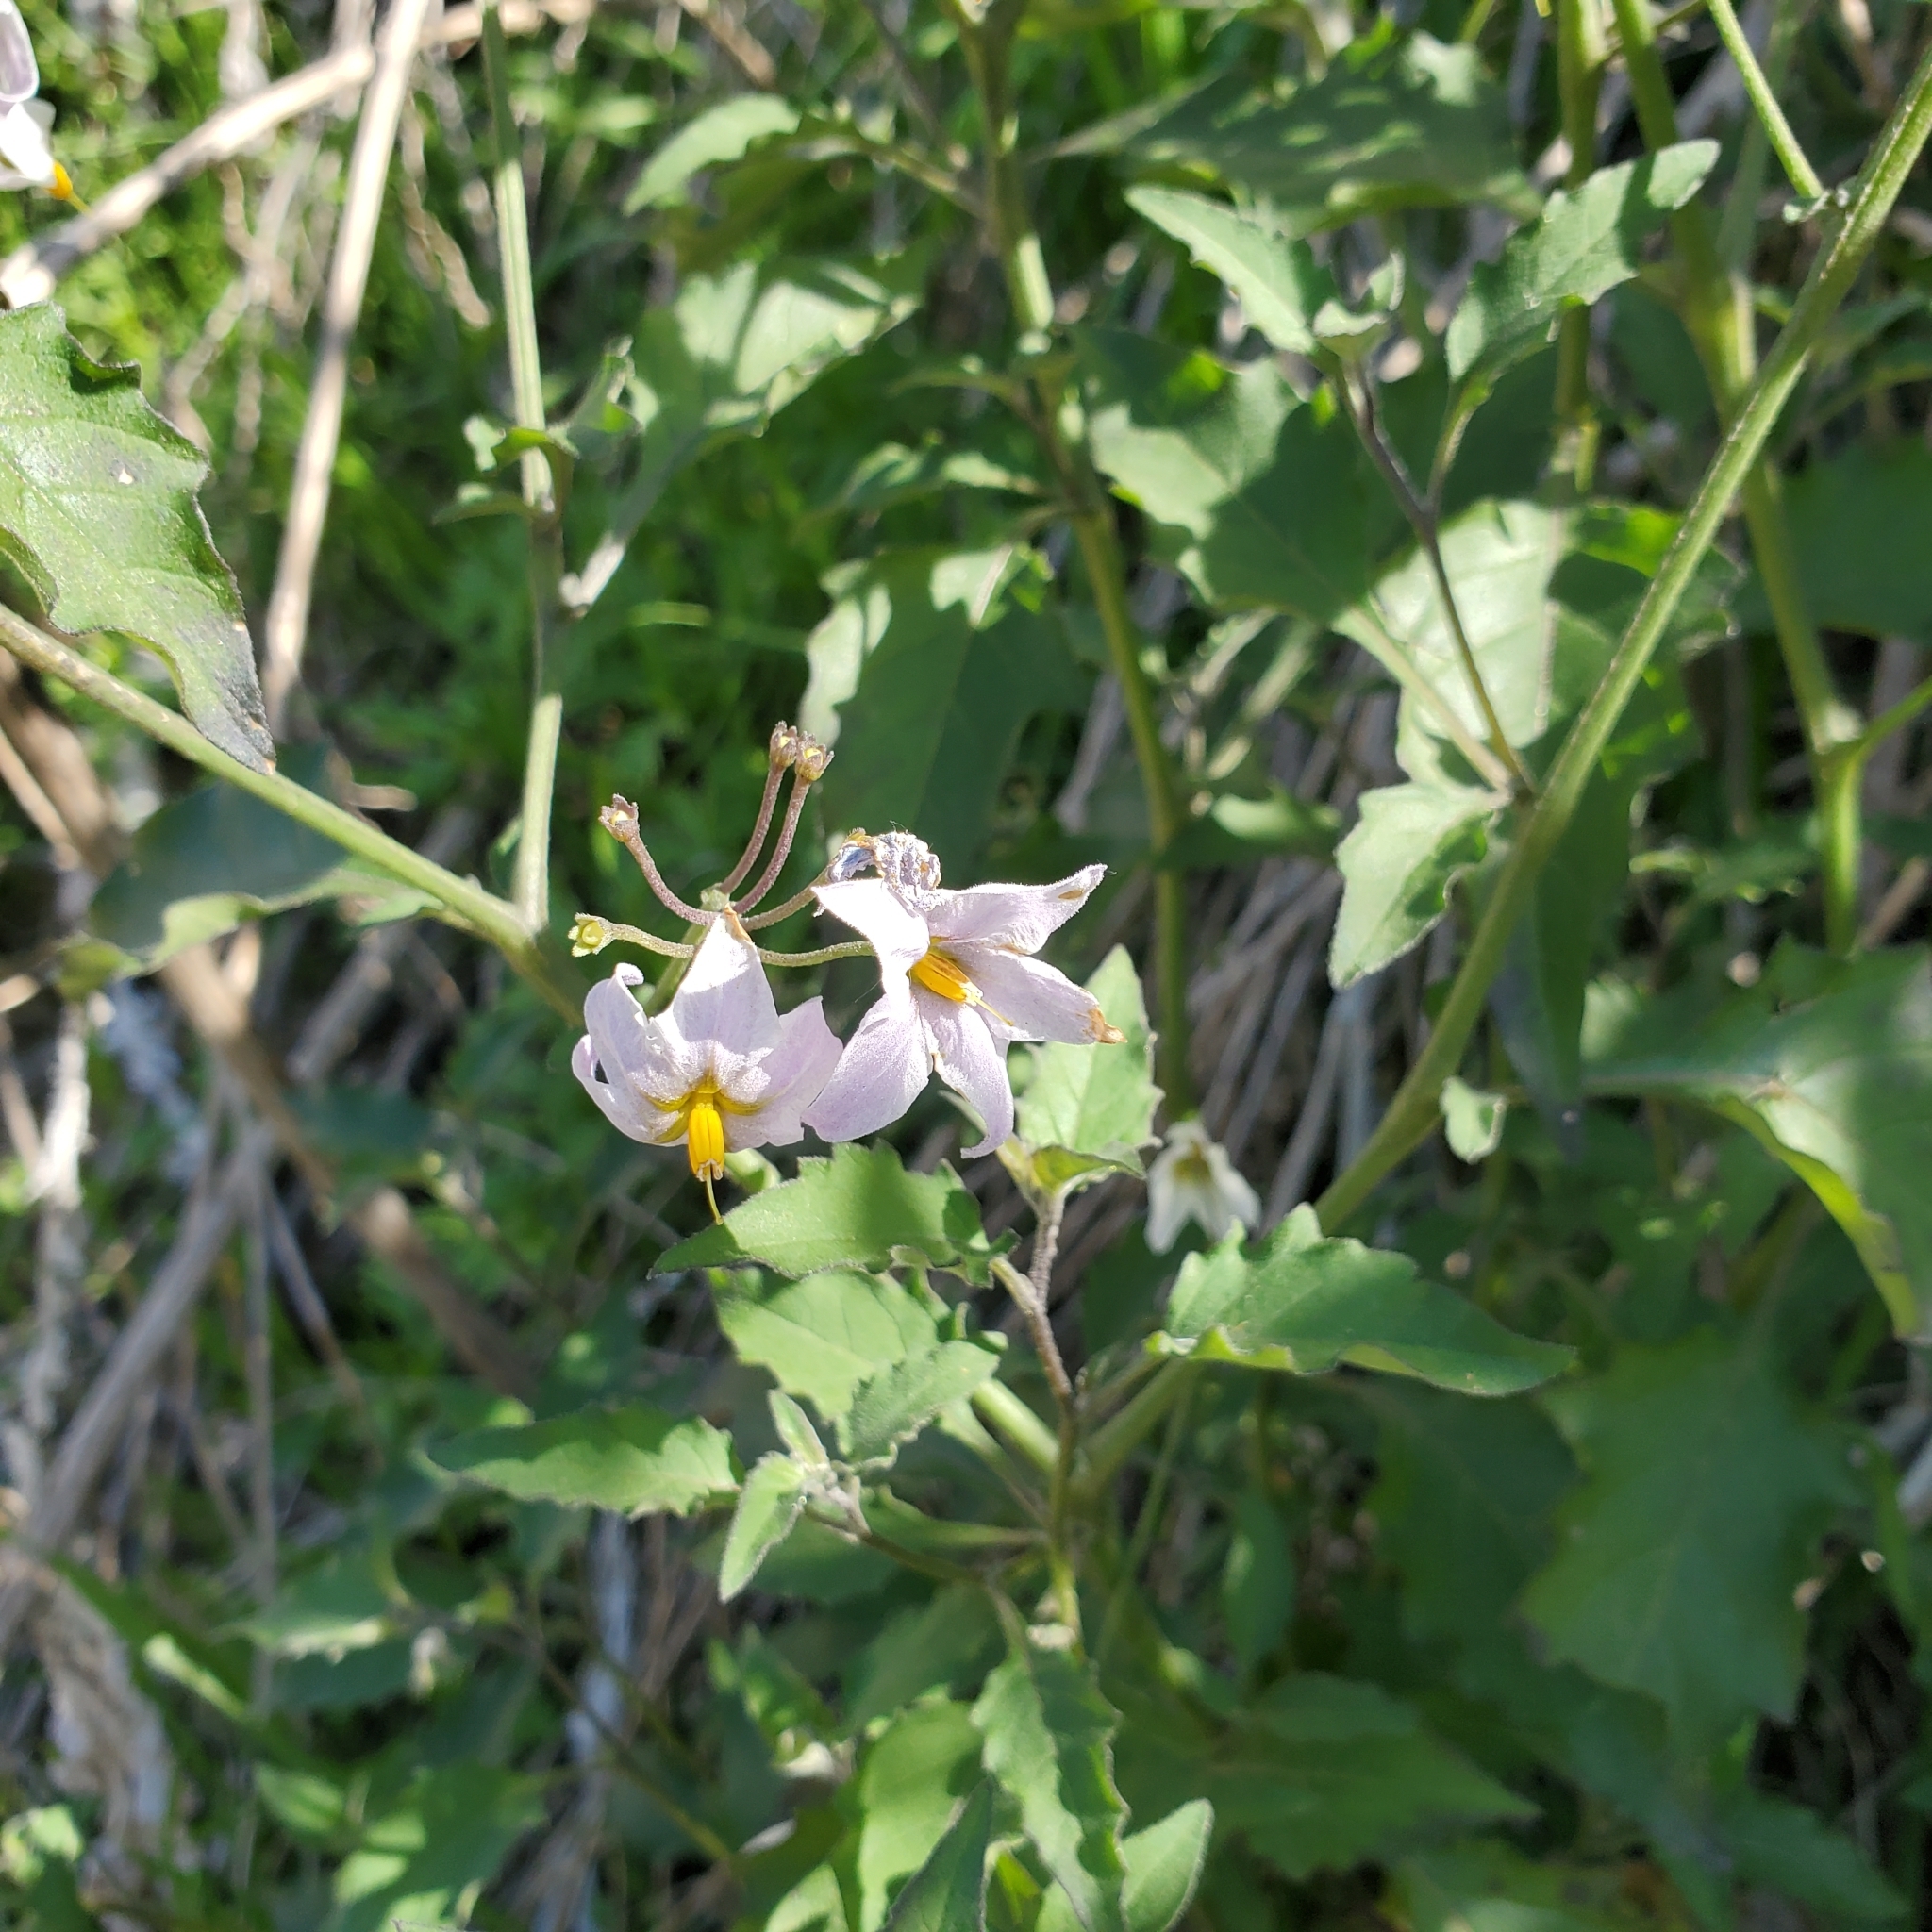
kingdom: Plantae
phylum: Tracheophyta
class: Magnoliopsida
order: Solanales
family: Solanaceae
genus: Solanum
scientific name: Solanum douglasii
